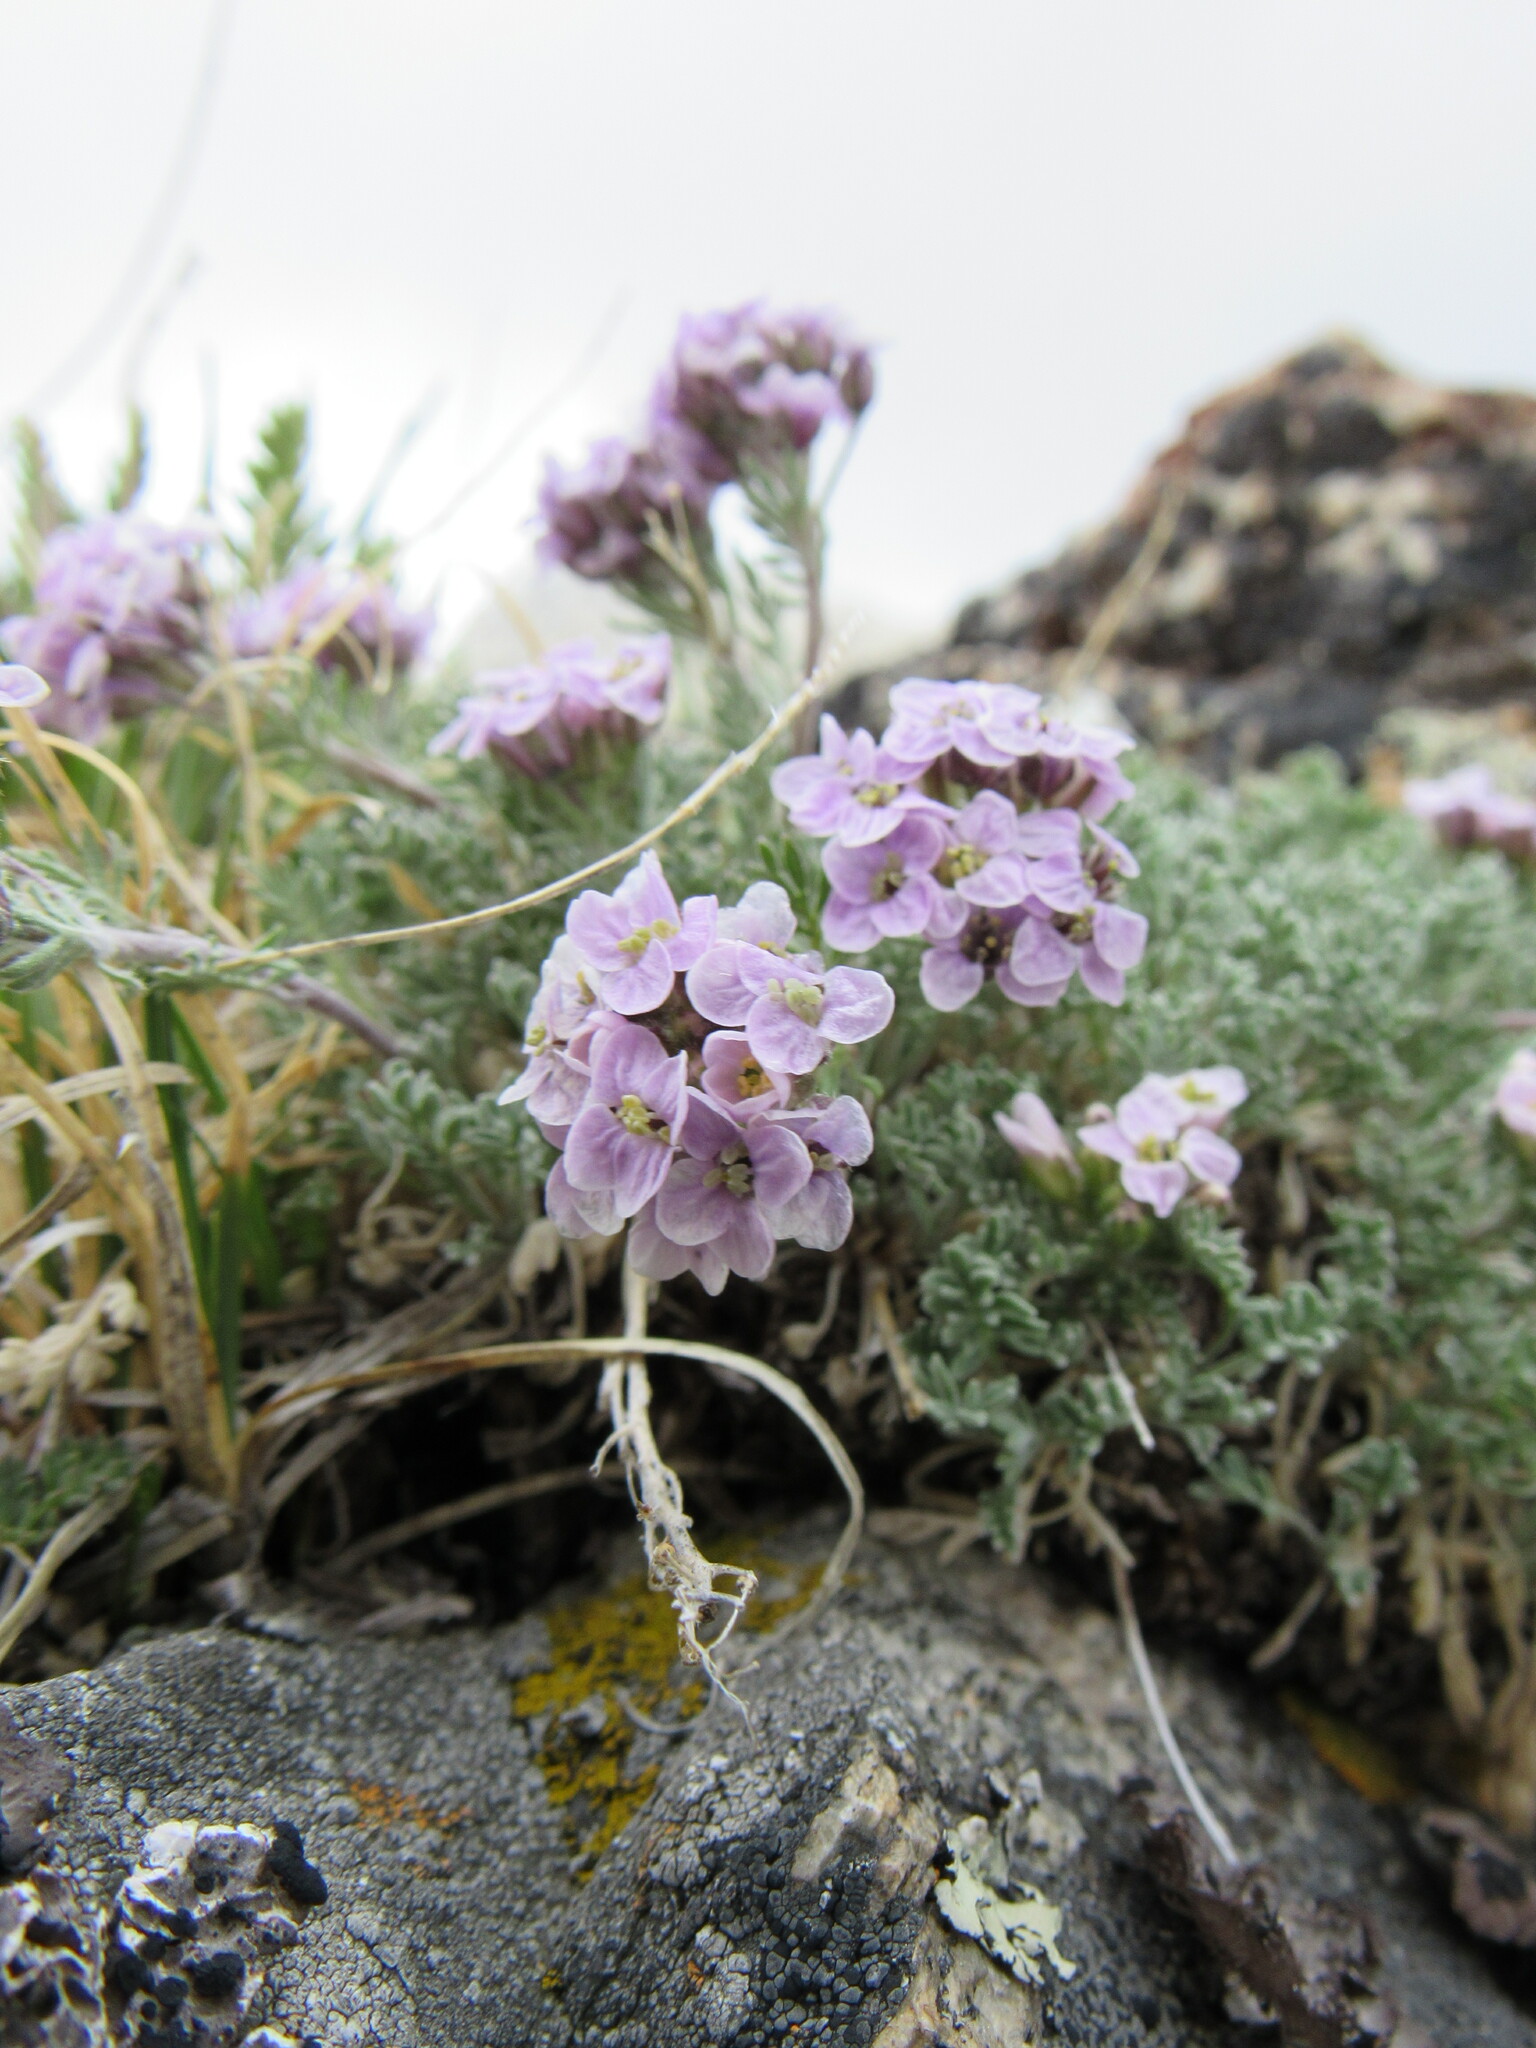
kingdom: Plantae
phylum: Tracheophyta
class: Magnoliopsida
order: Brassicales
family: Brassicaceae
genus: Smelowskia
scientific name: Smelowskia americana
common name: American false candytuft
